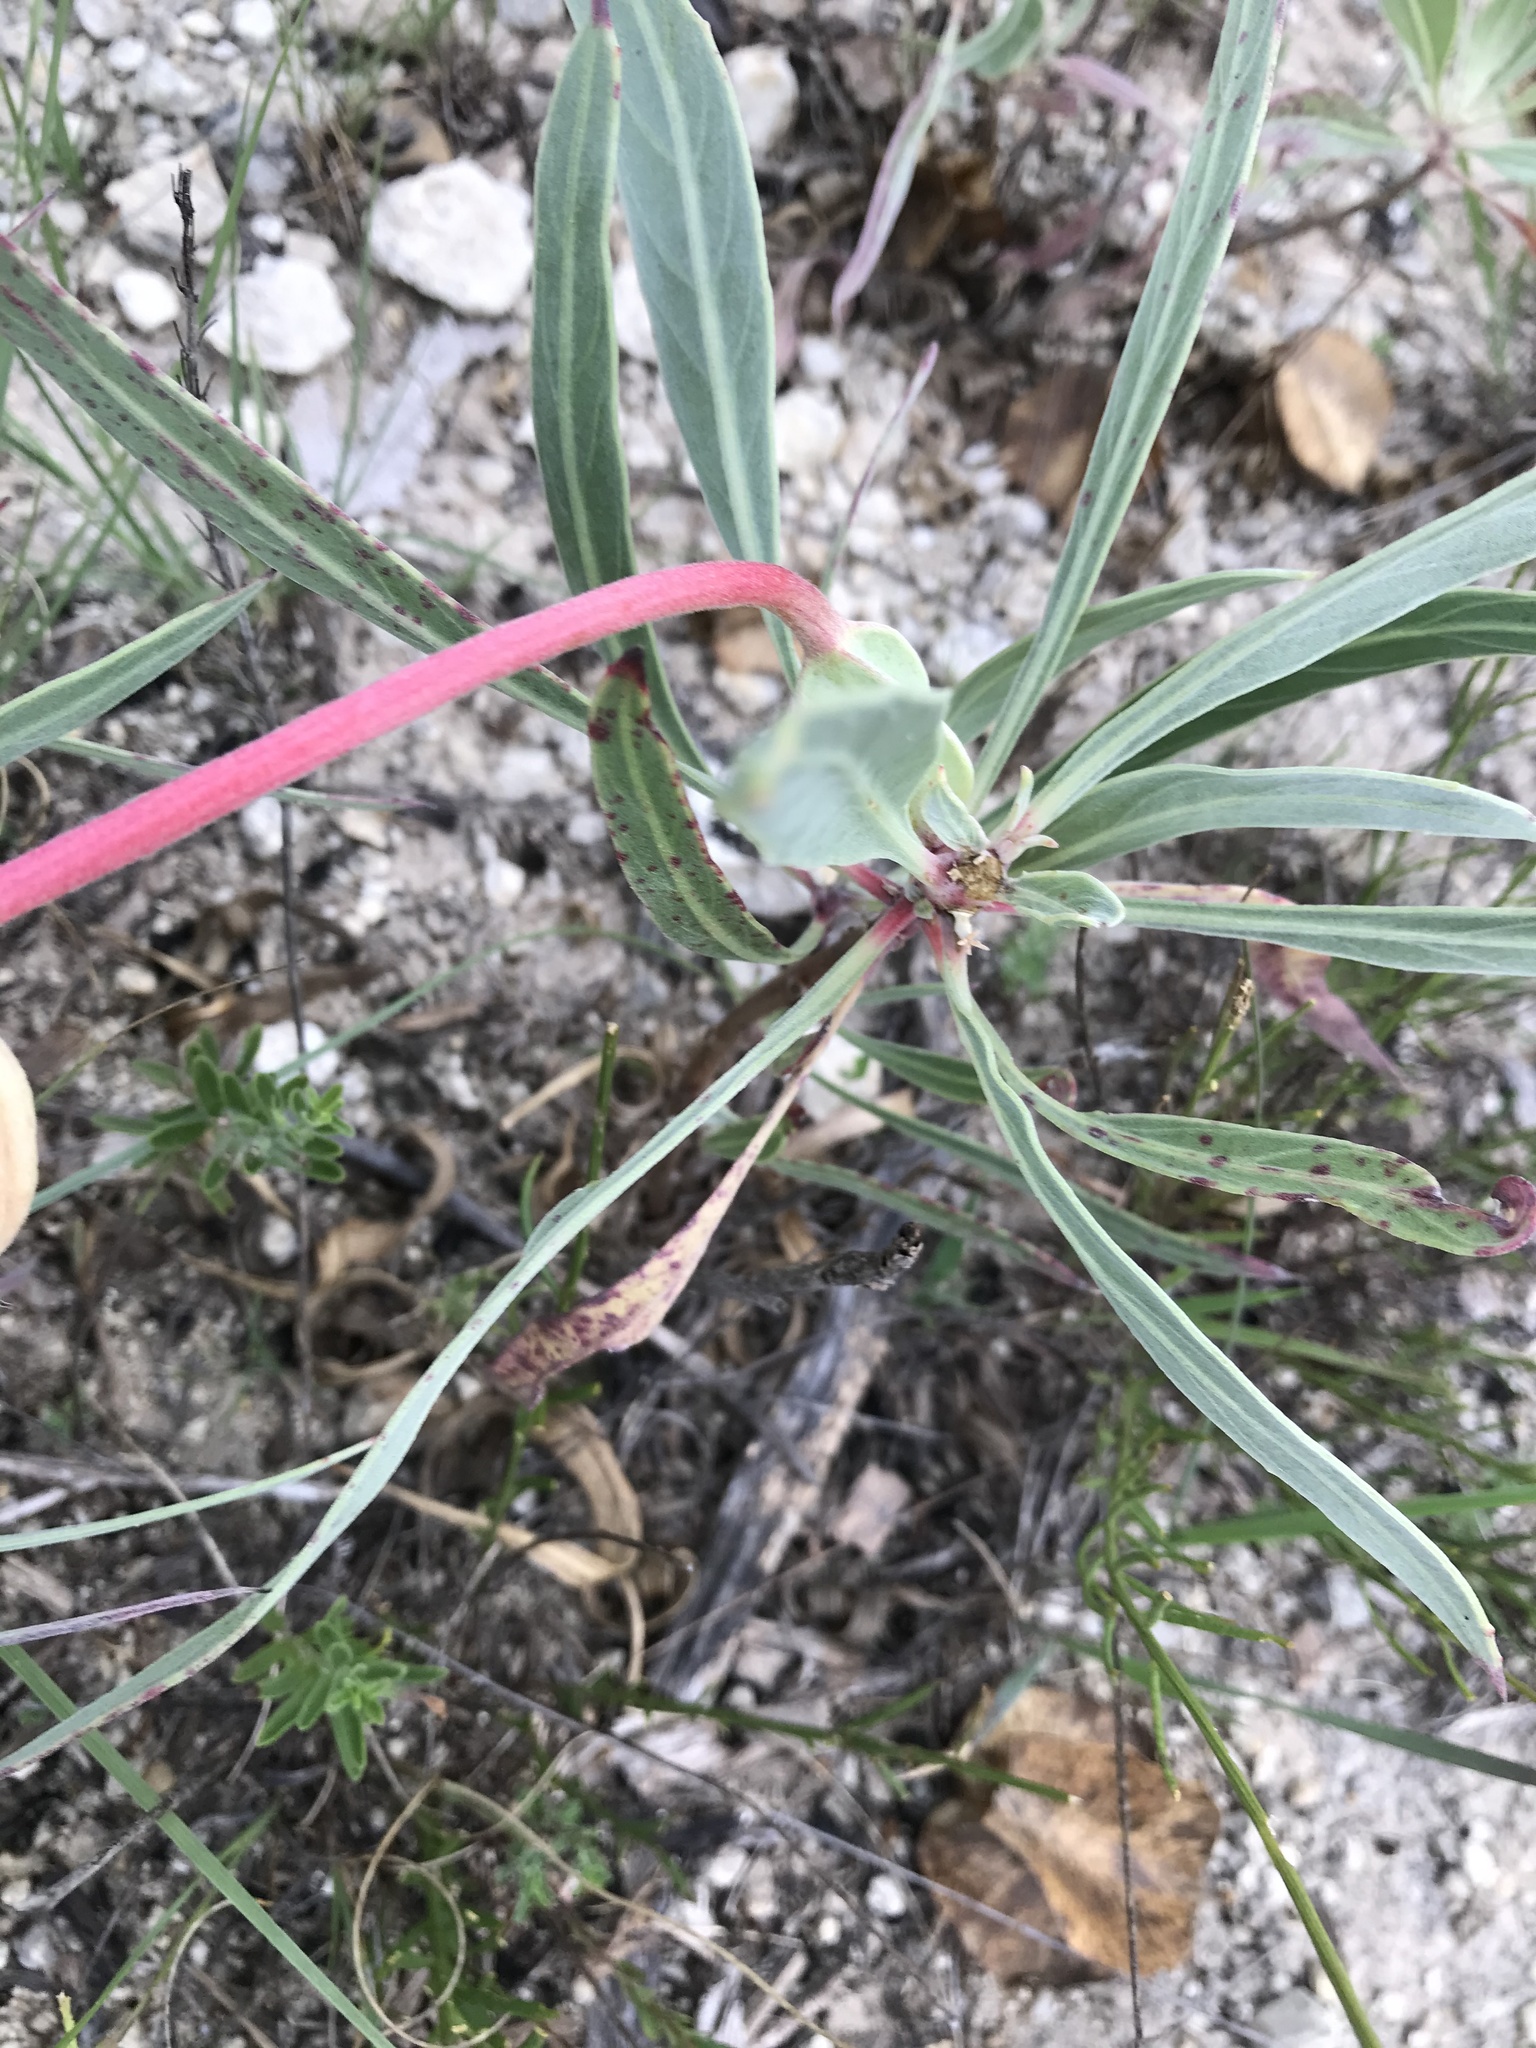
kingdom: Plantae
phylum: Tracheophyta
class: Magnoliopsida
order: Myrtales
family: Onagraceae
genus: Oenothera
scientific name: Oenothera macrocarpa
